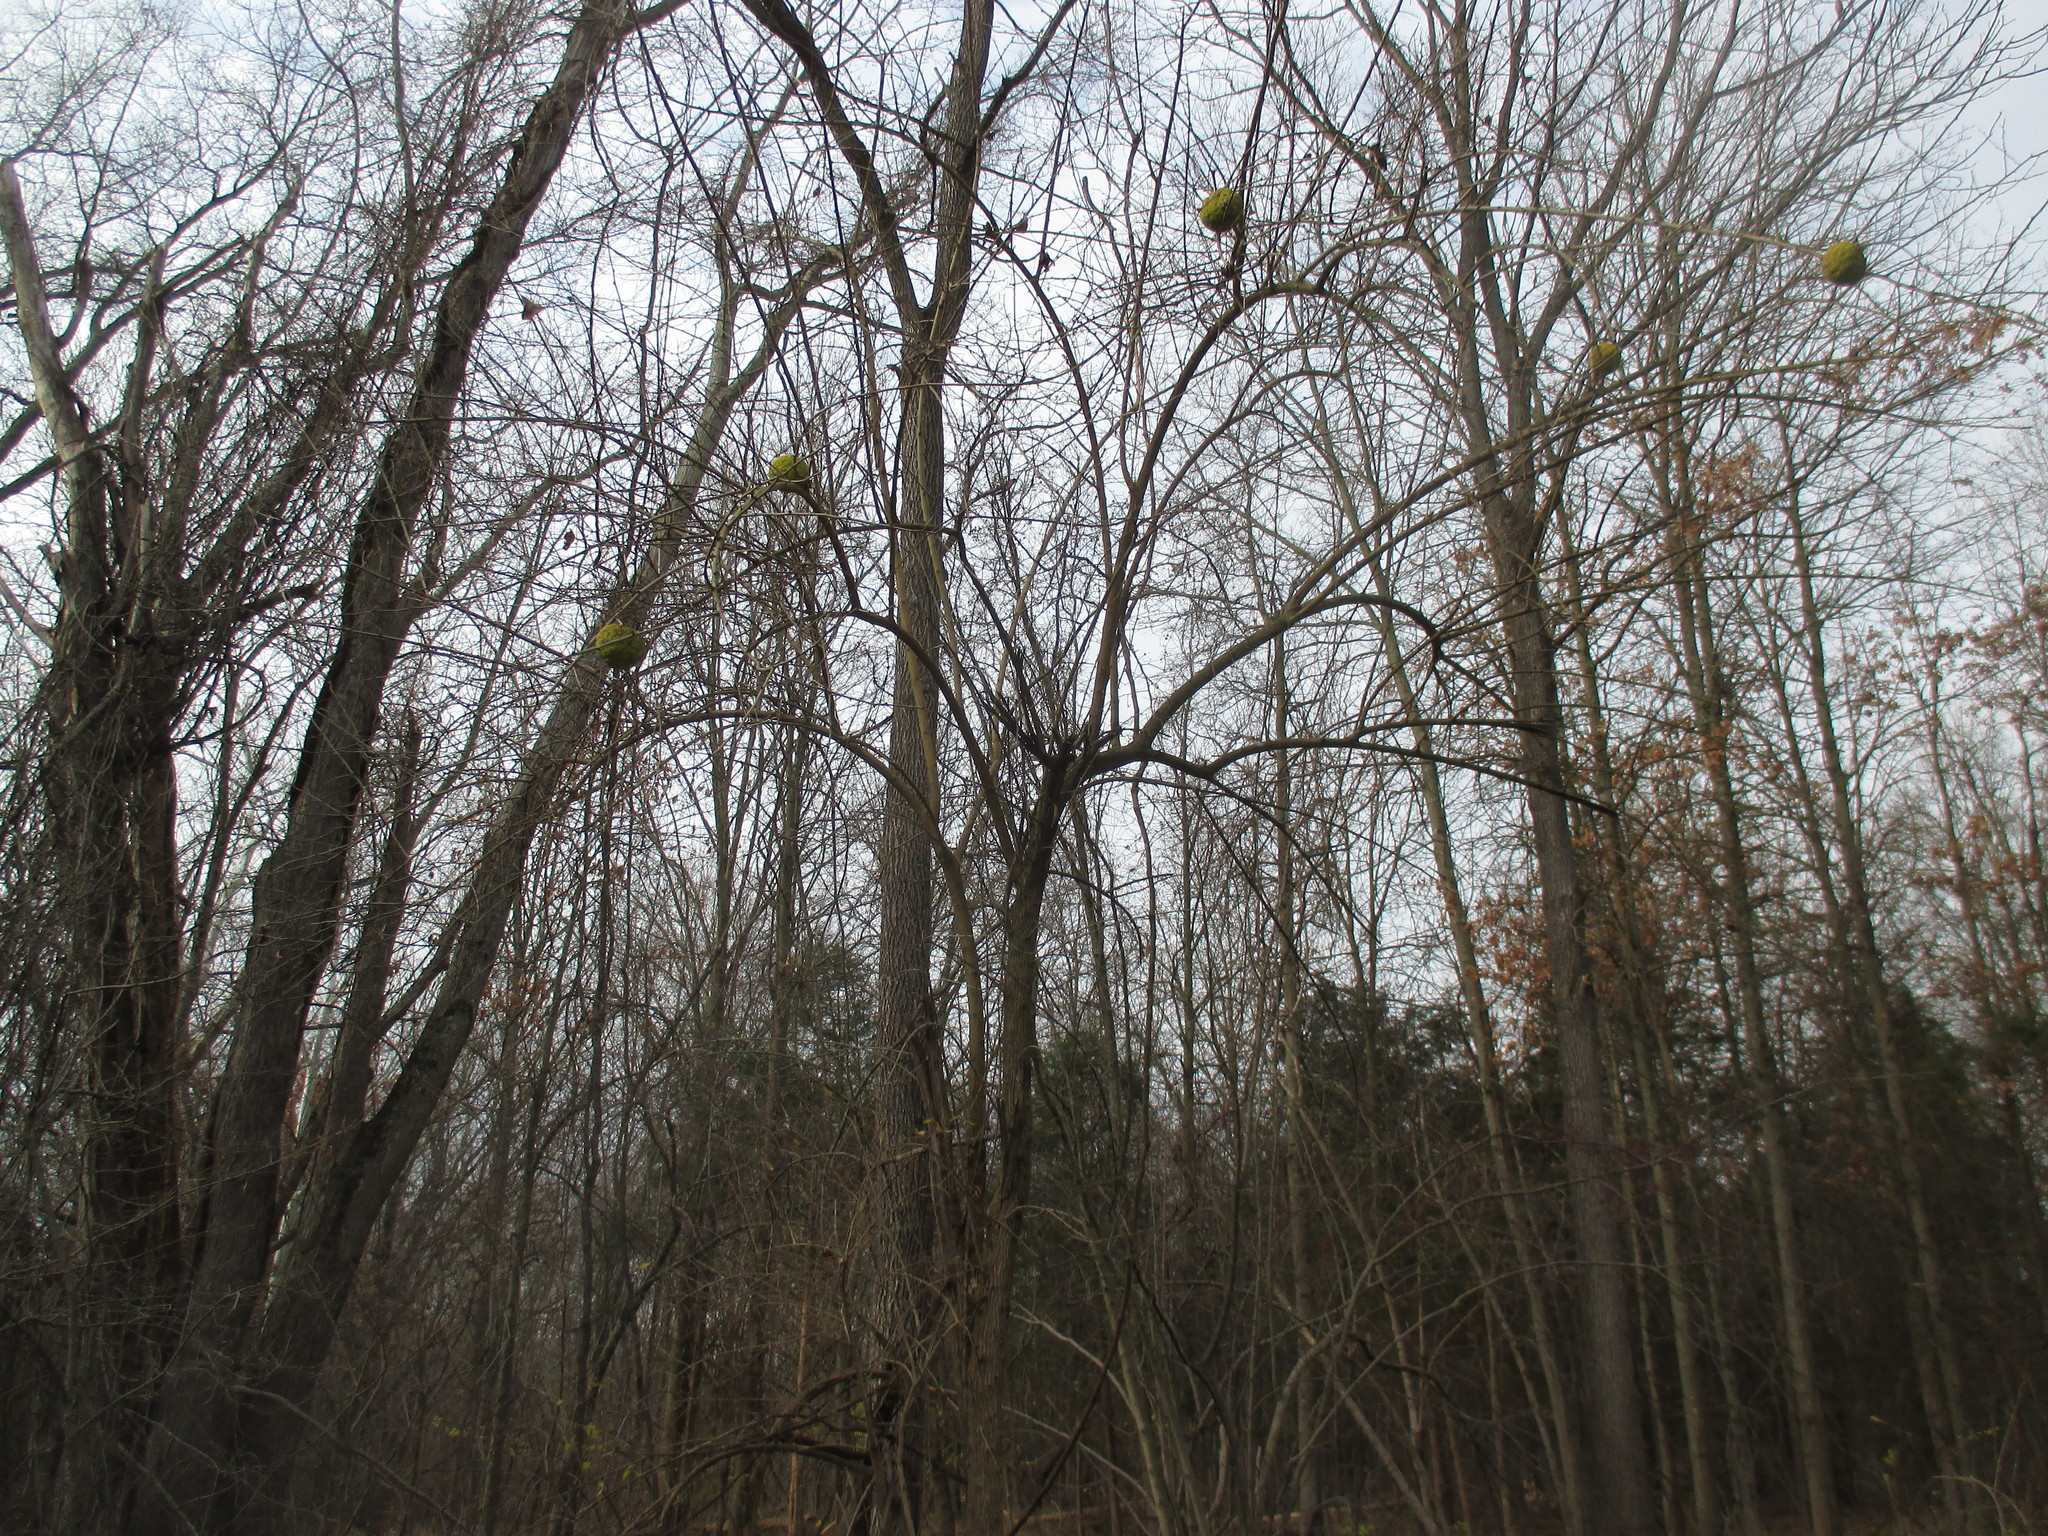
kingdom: Plantae
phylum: Tracheophyta
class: Magnoliopsida
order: Rosales
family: Moraceae
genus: Maclura
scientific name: Maclura pomifera
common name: Osage-orange
